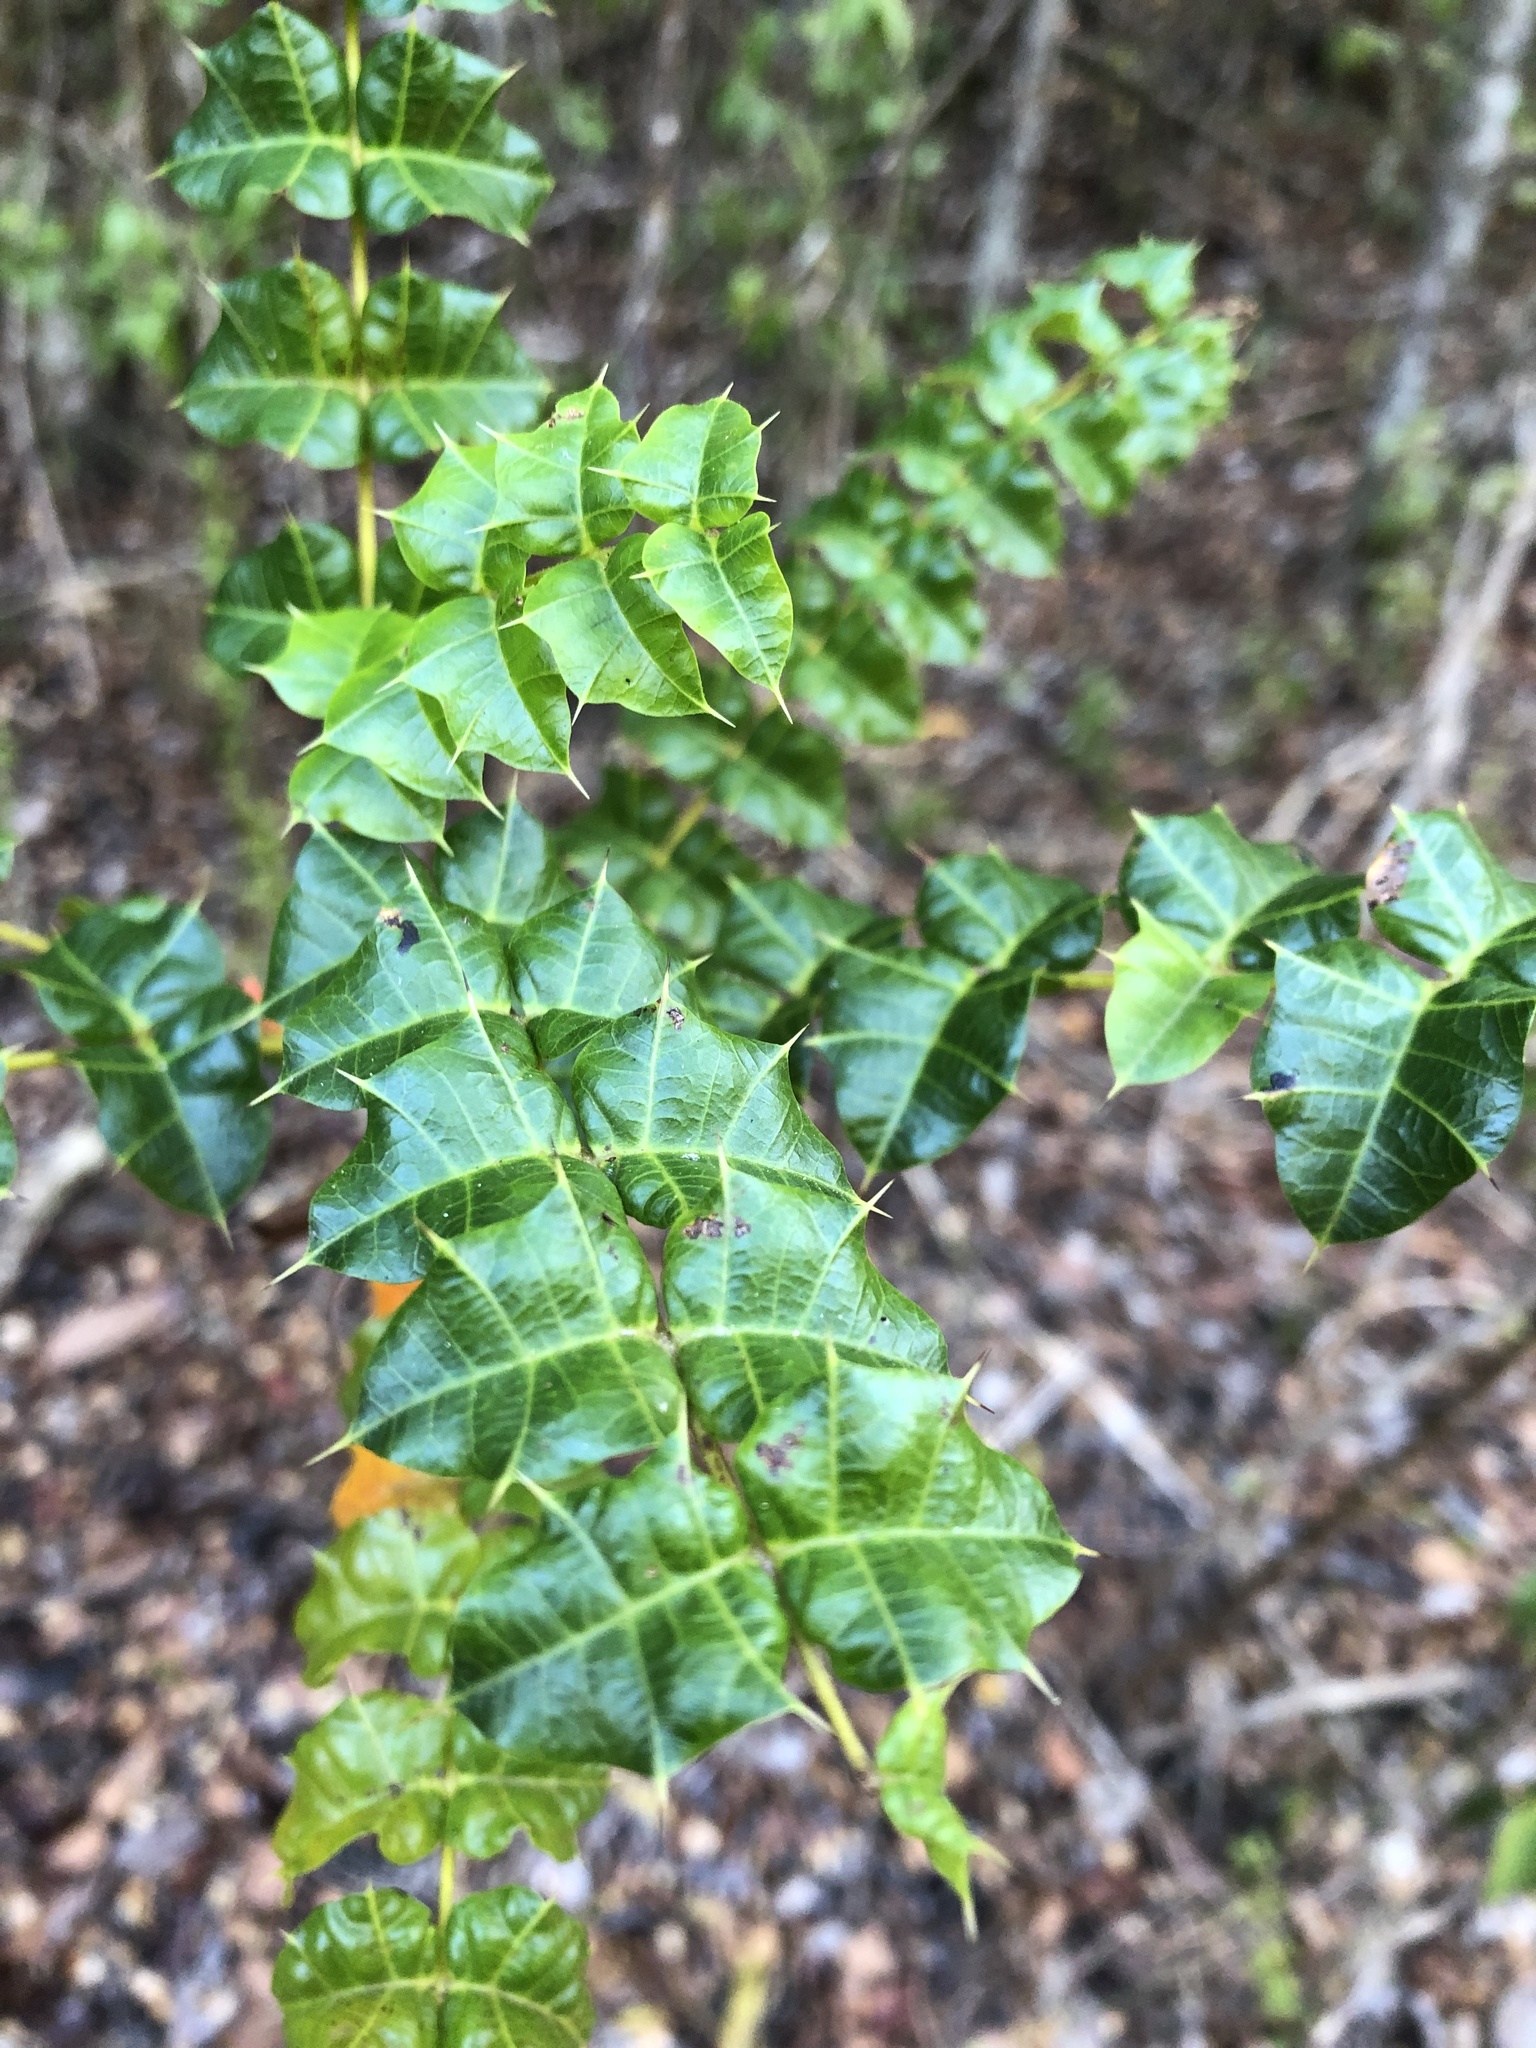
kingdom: Plantae
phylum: Tracheophyta
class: Magnoliopsida
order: Sapindales
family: Anacardiaceae
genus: Comocladia
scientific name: Comocladia dodonaea
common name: Poison ash
